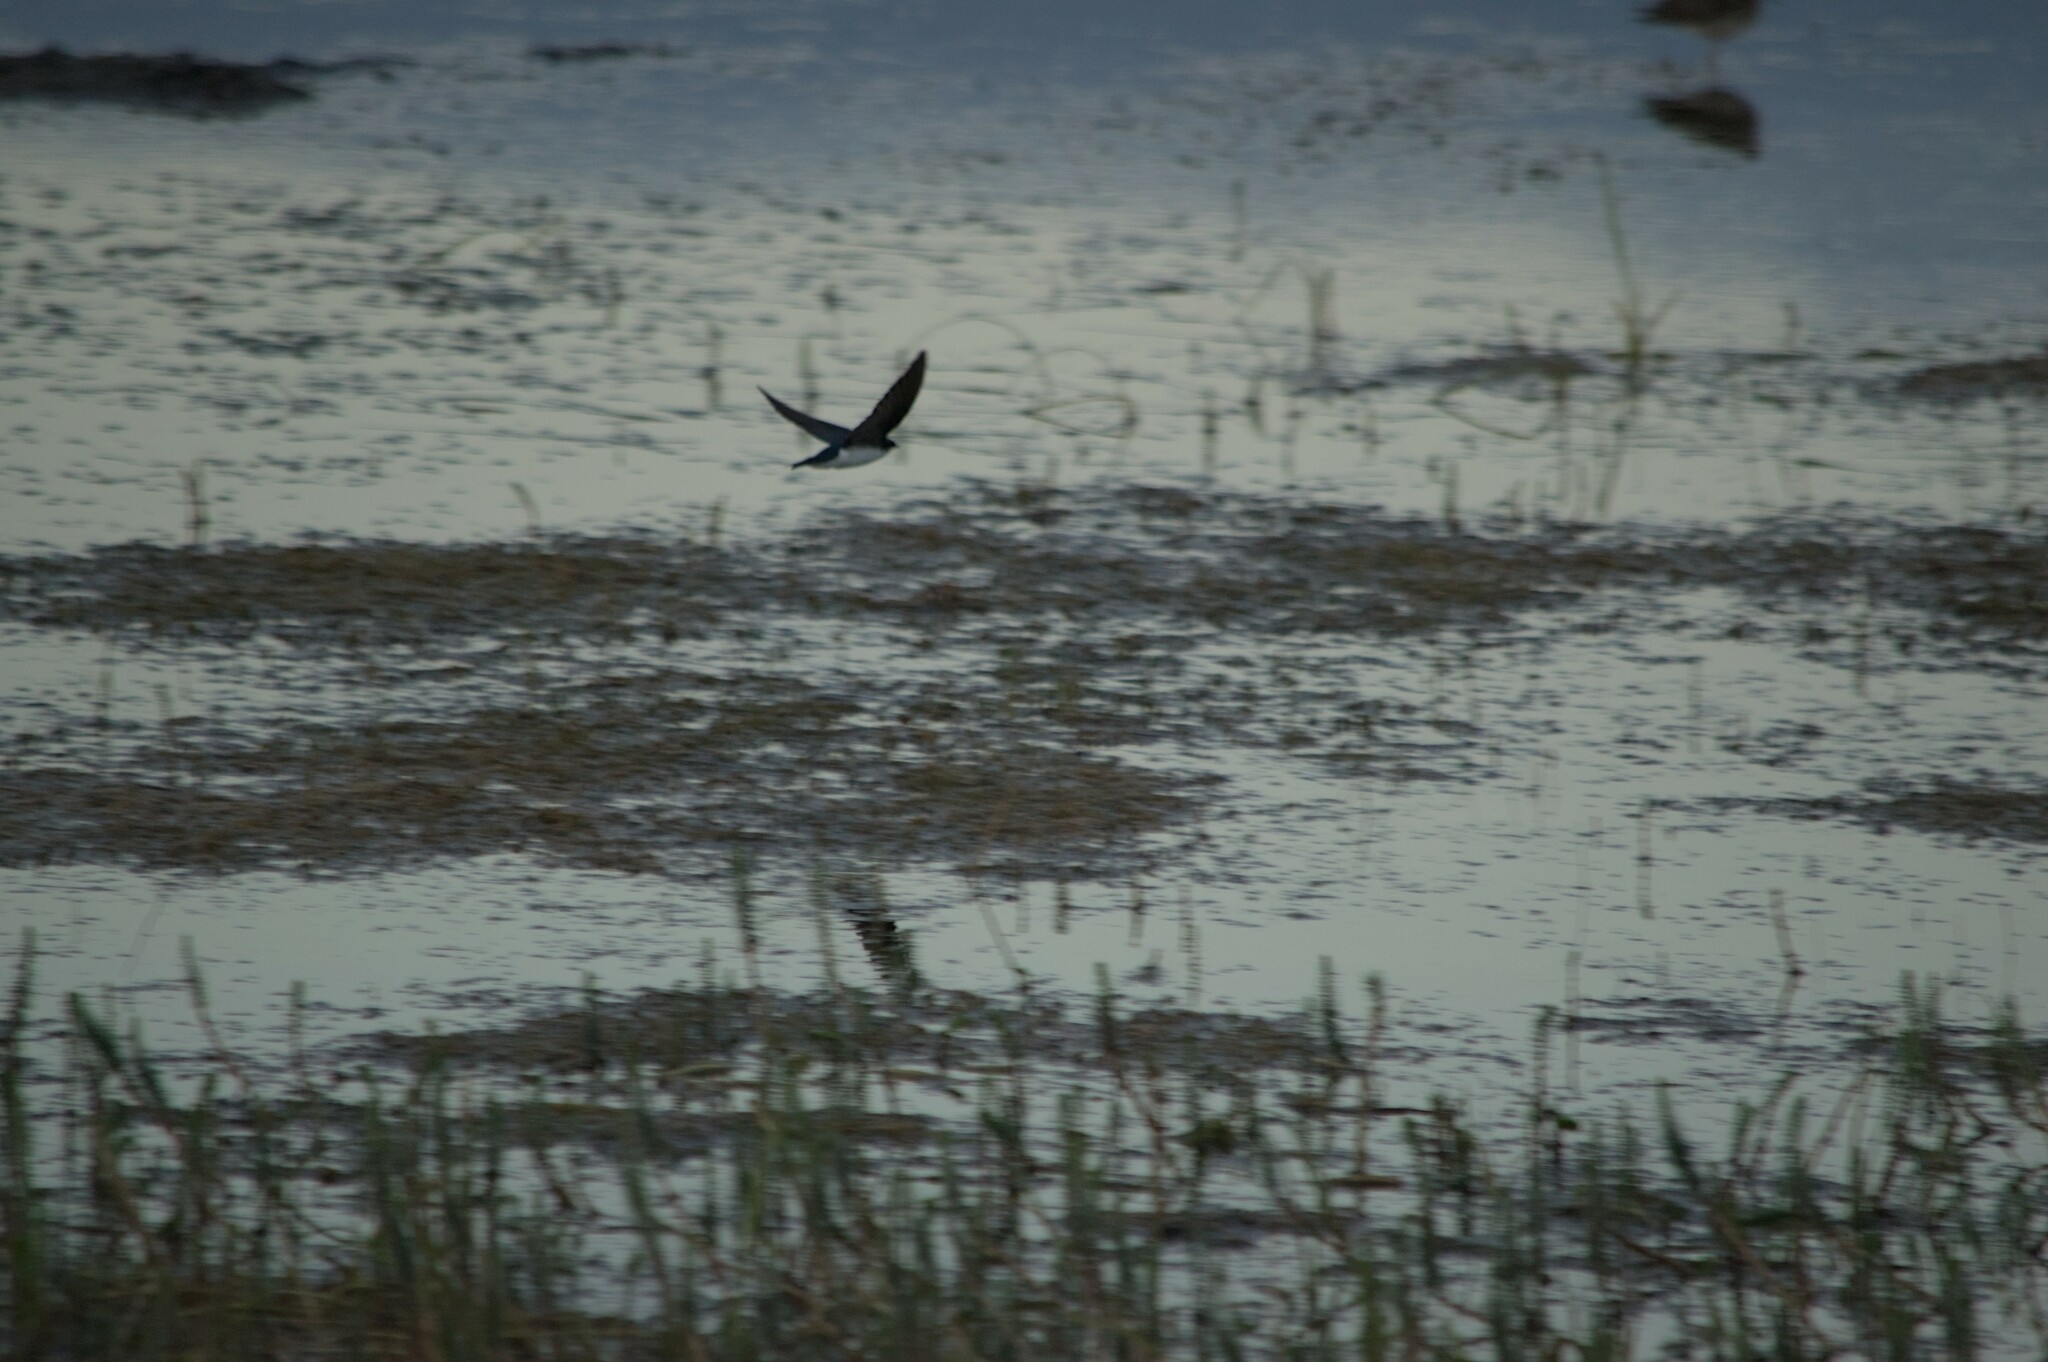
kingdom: Animalia
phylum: Chordata
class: Aves
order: Passeriformes
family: Hirundinidae
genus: Tachycineta
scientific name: Tachycineta bicolor
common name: Tree swallow
